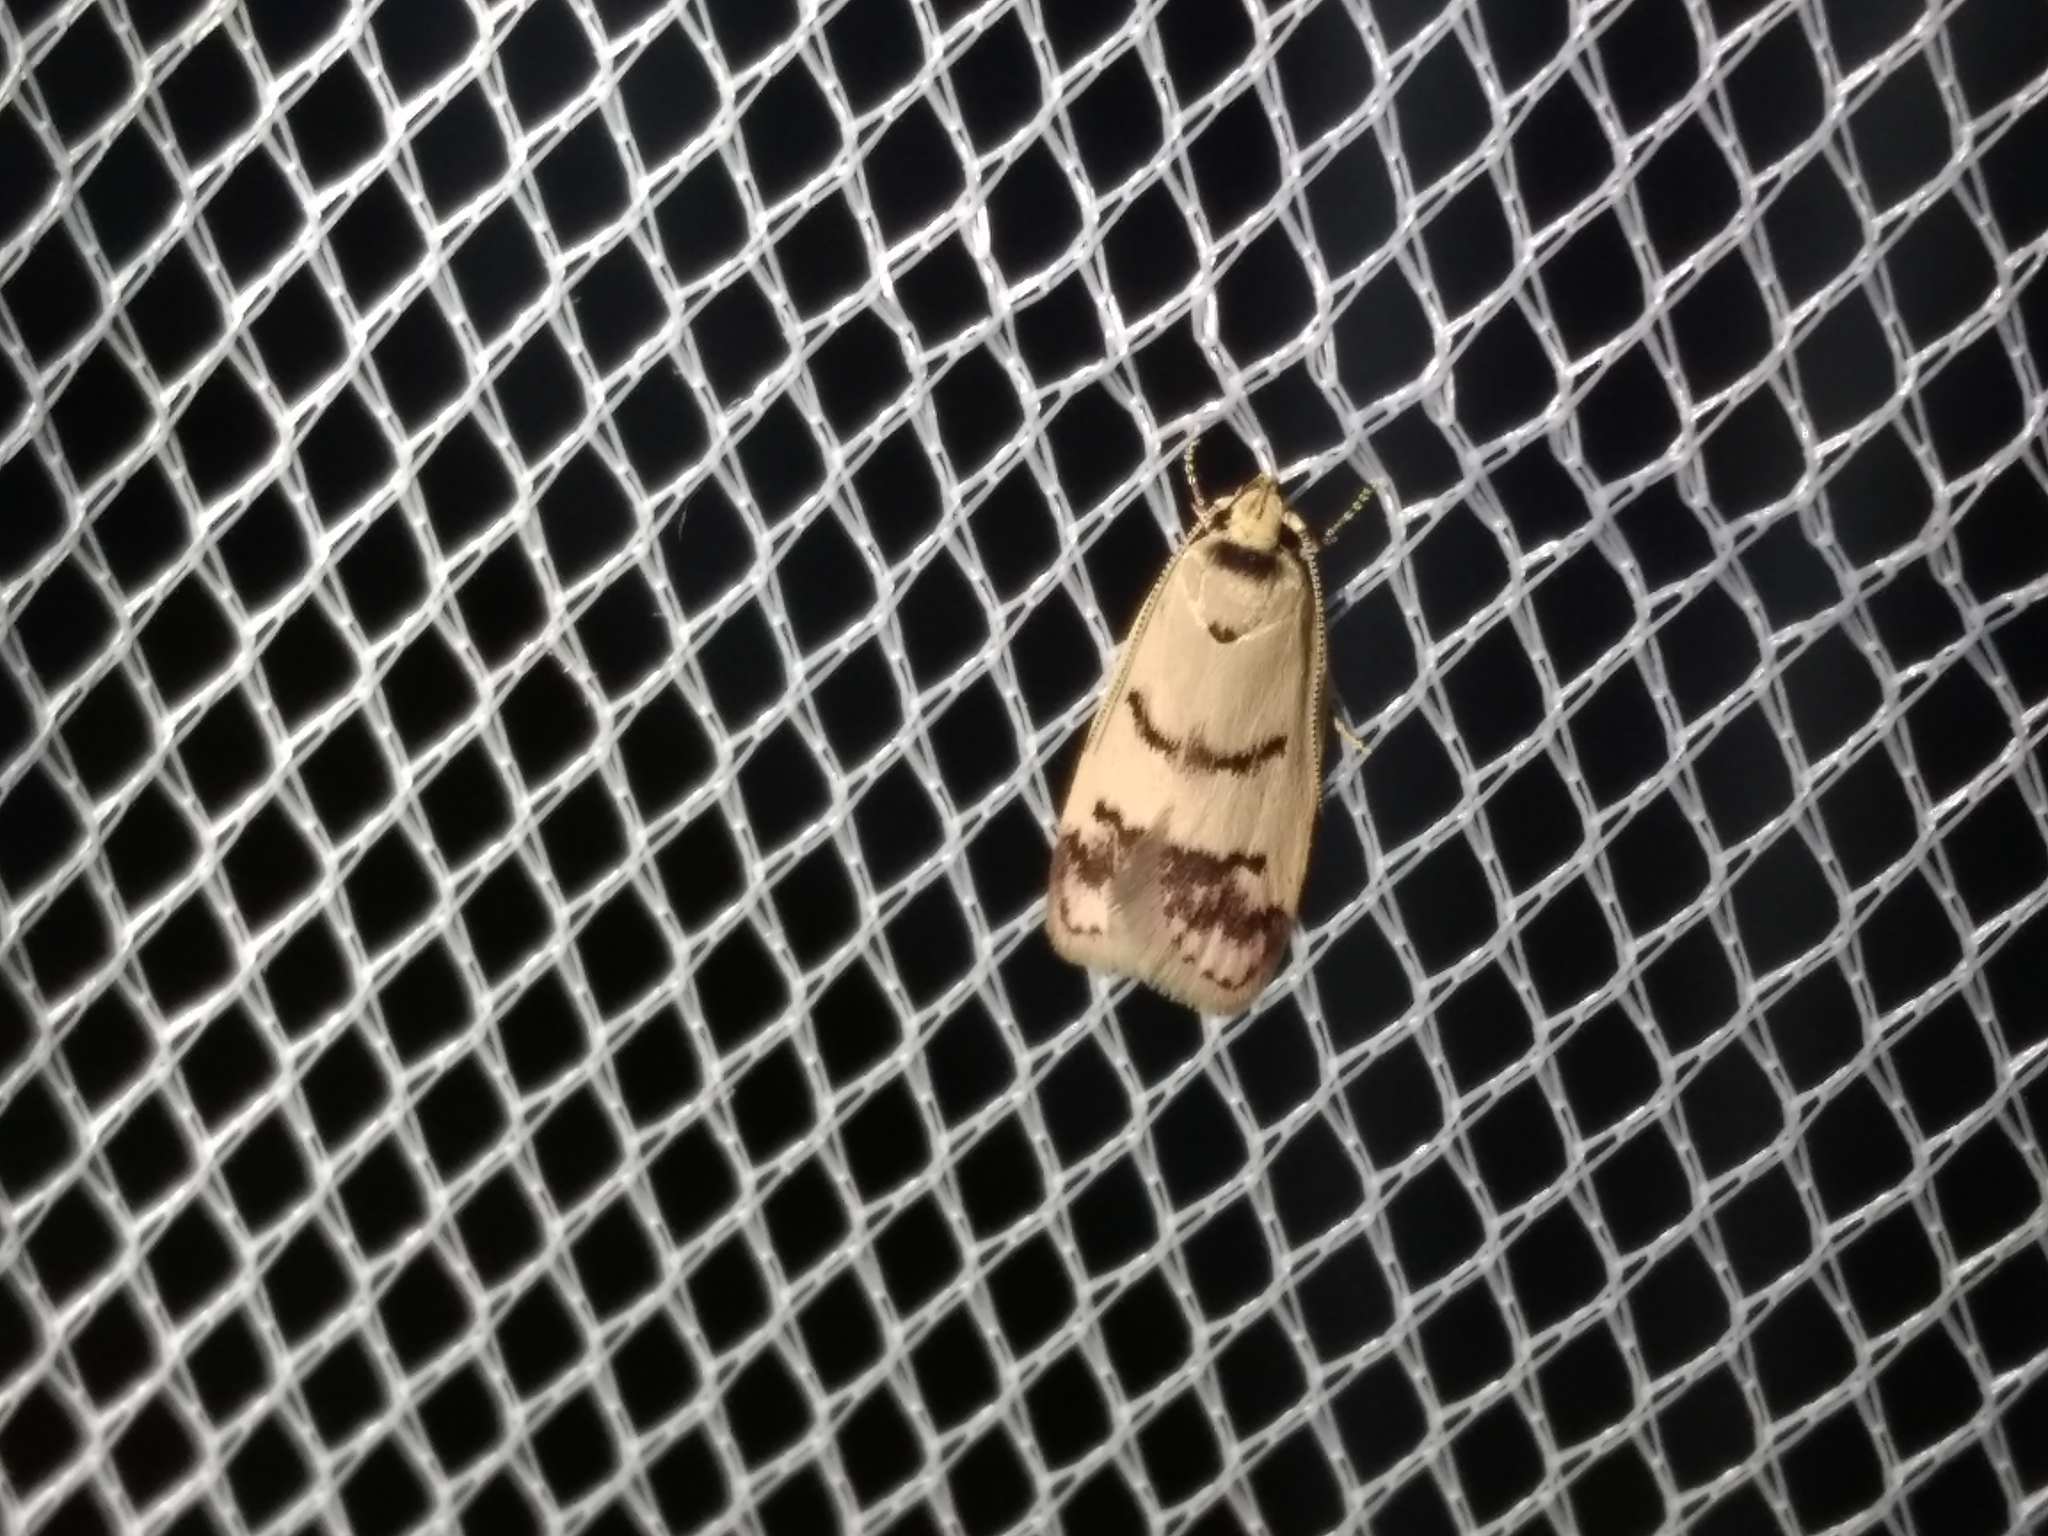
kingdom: Animalia
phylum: Arthropoda
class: Insecta
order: Lepidoptera
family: Oecophoridae
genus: Compsotropha
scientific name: Compsotropha strophiella
